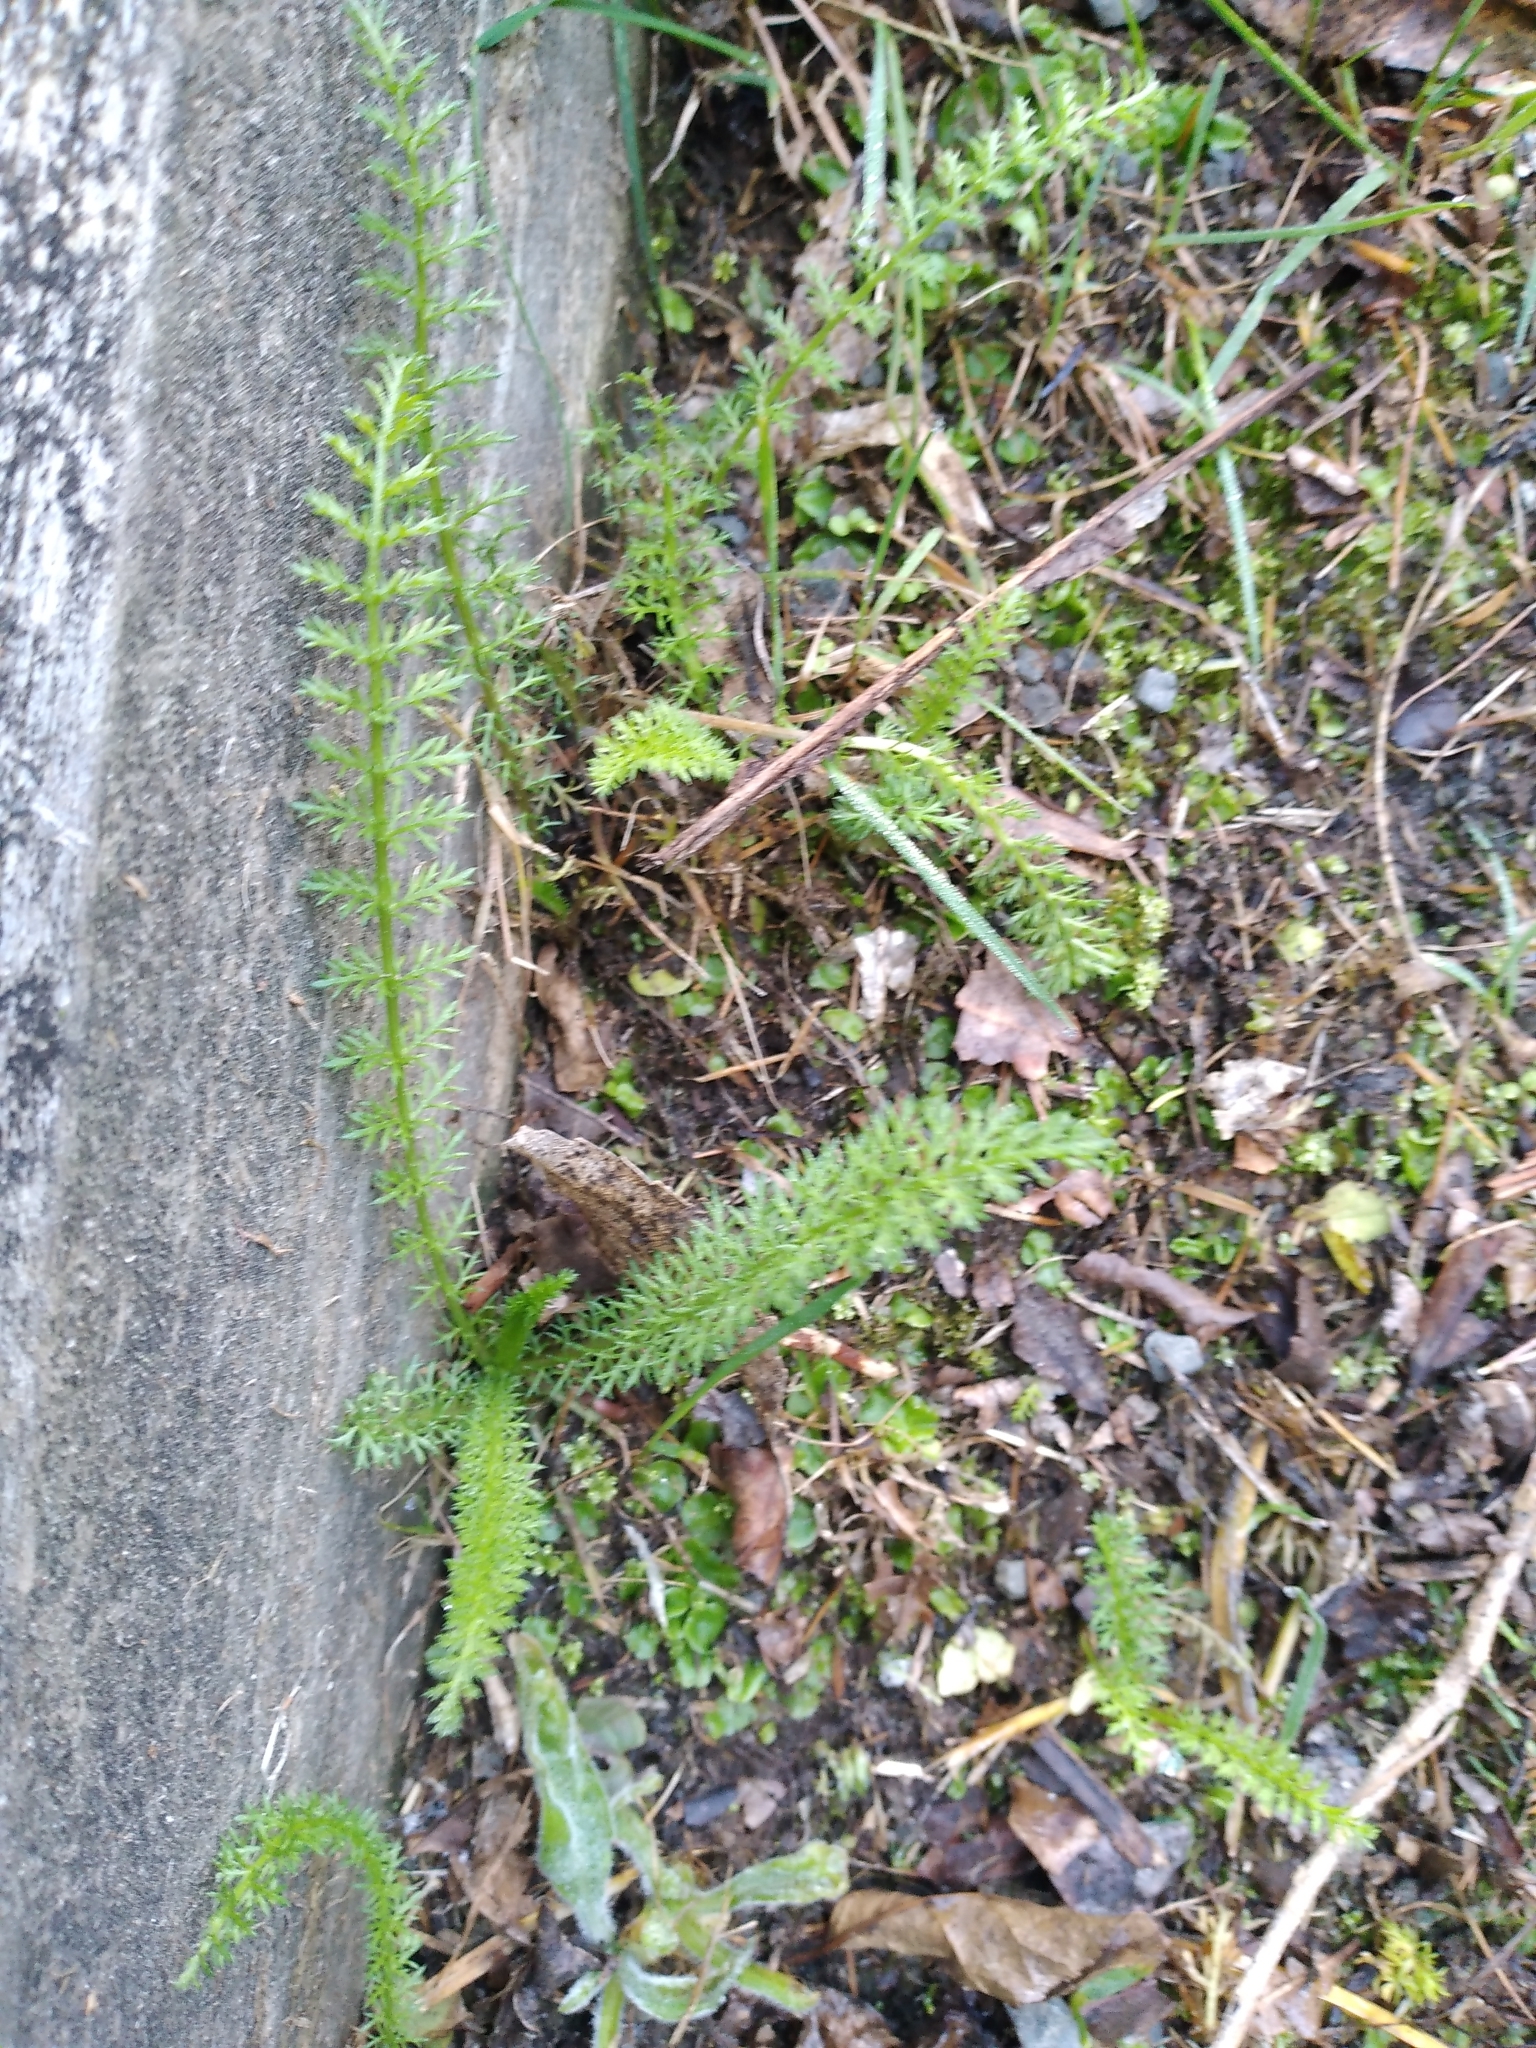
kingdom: Plantae
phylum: Tracheophyta
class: Magnoliopsida
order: Asterales
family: Asteraceae
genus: Achillea
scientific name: Achillea millefolium
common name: Yarrow
